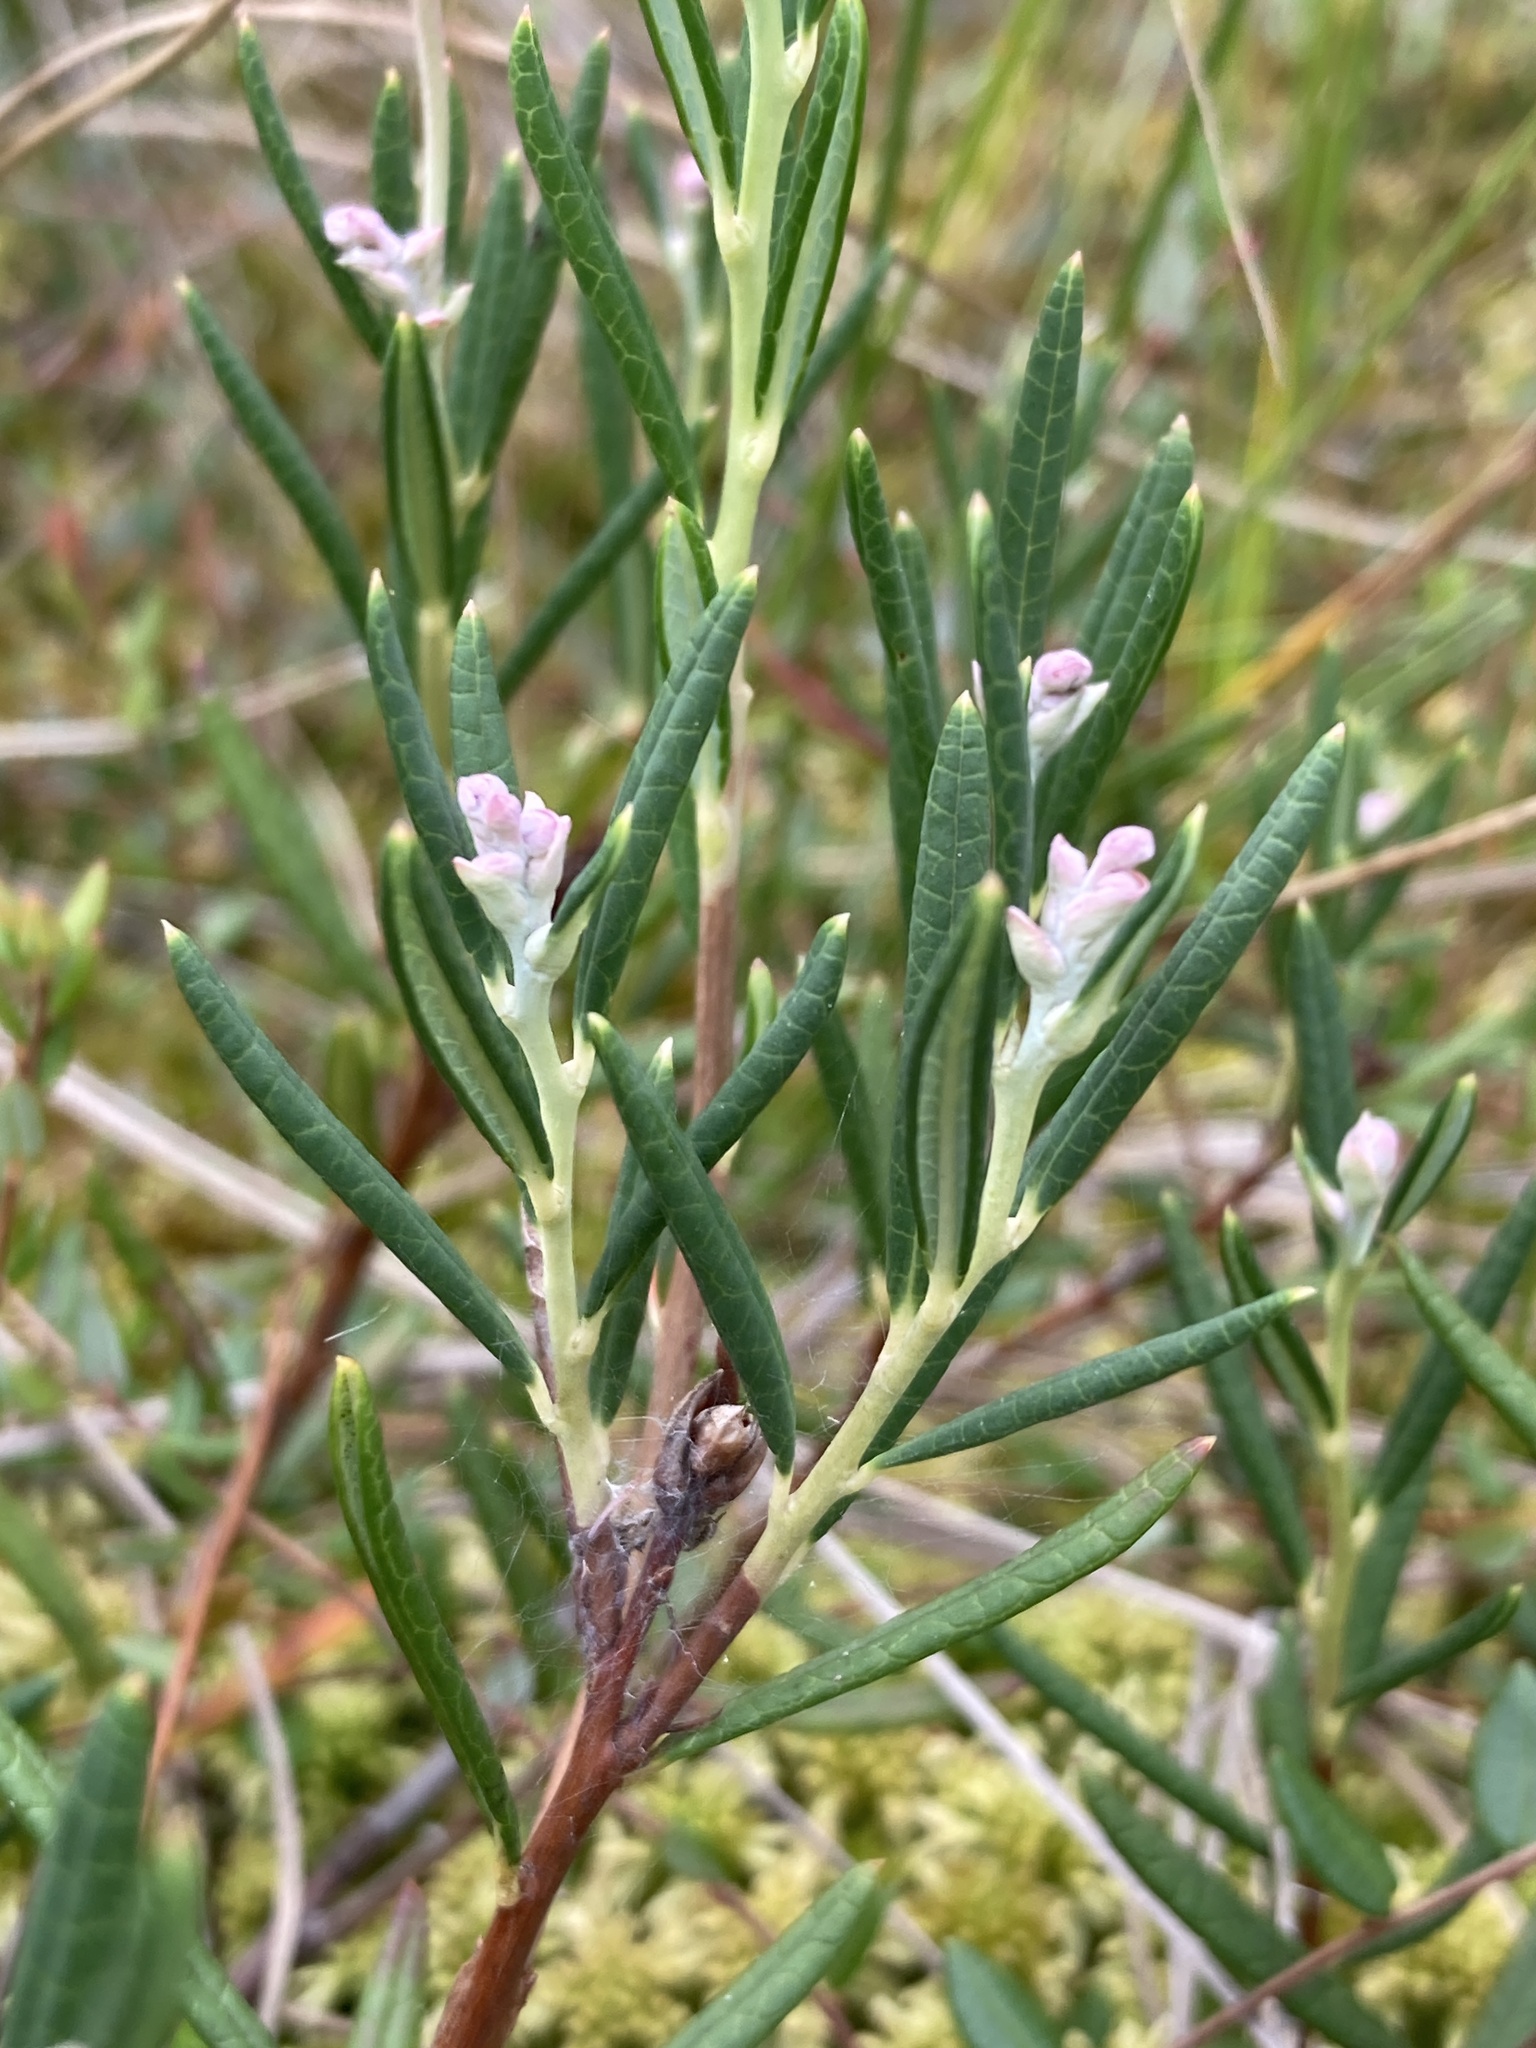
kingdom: Plantae
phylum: Tracheophyta
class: Magnoliopsida
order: Ericales
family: Ericaceae
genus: Andromeda
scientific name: Andromeda polifolia
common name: Bog-rosemary
